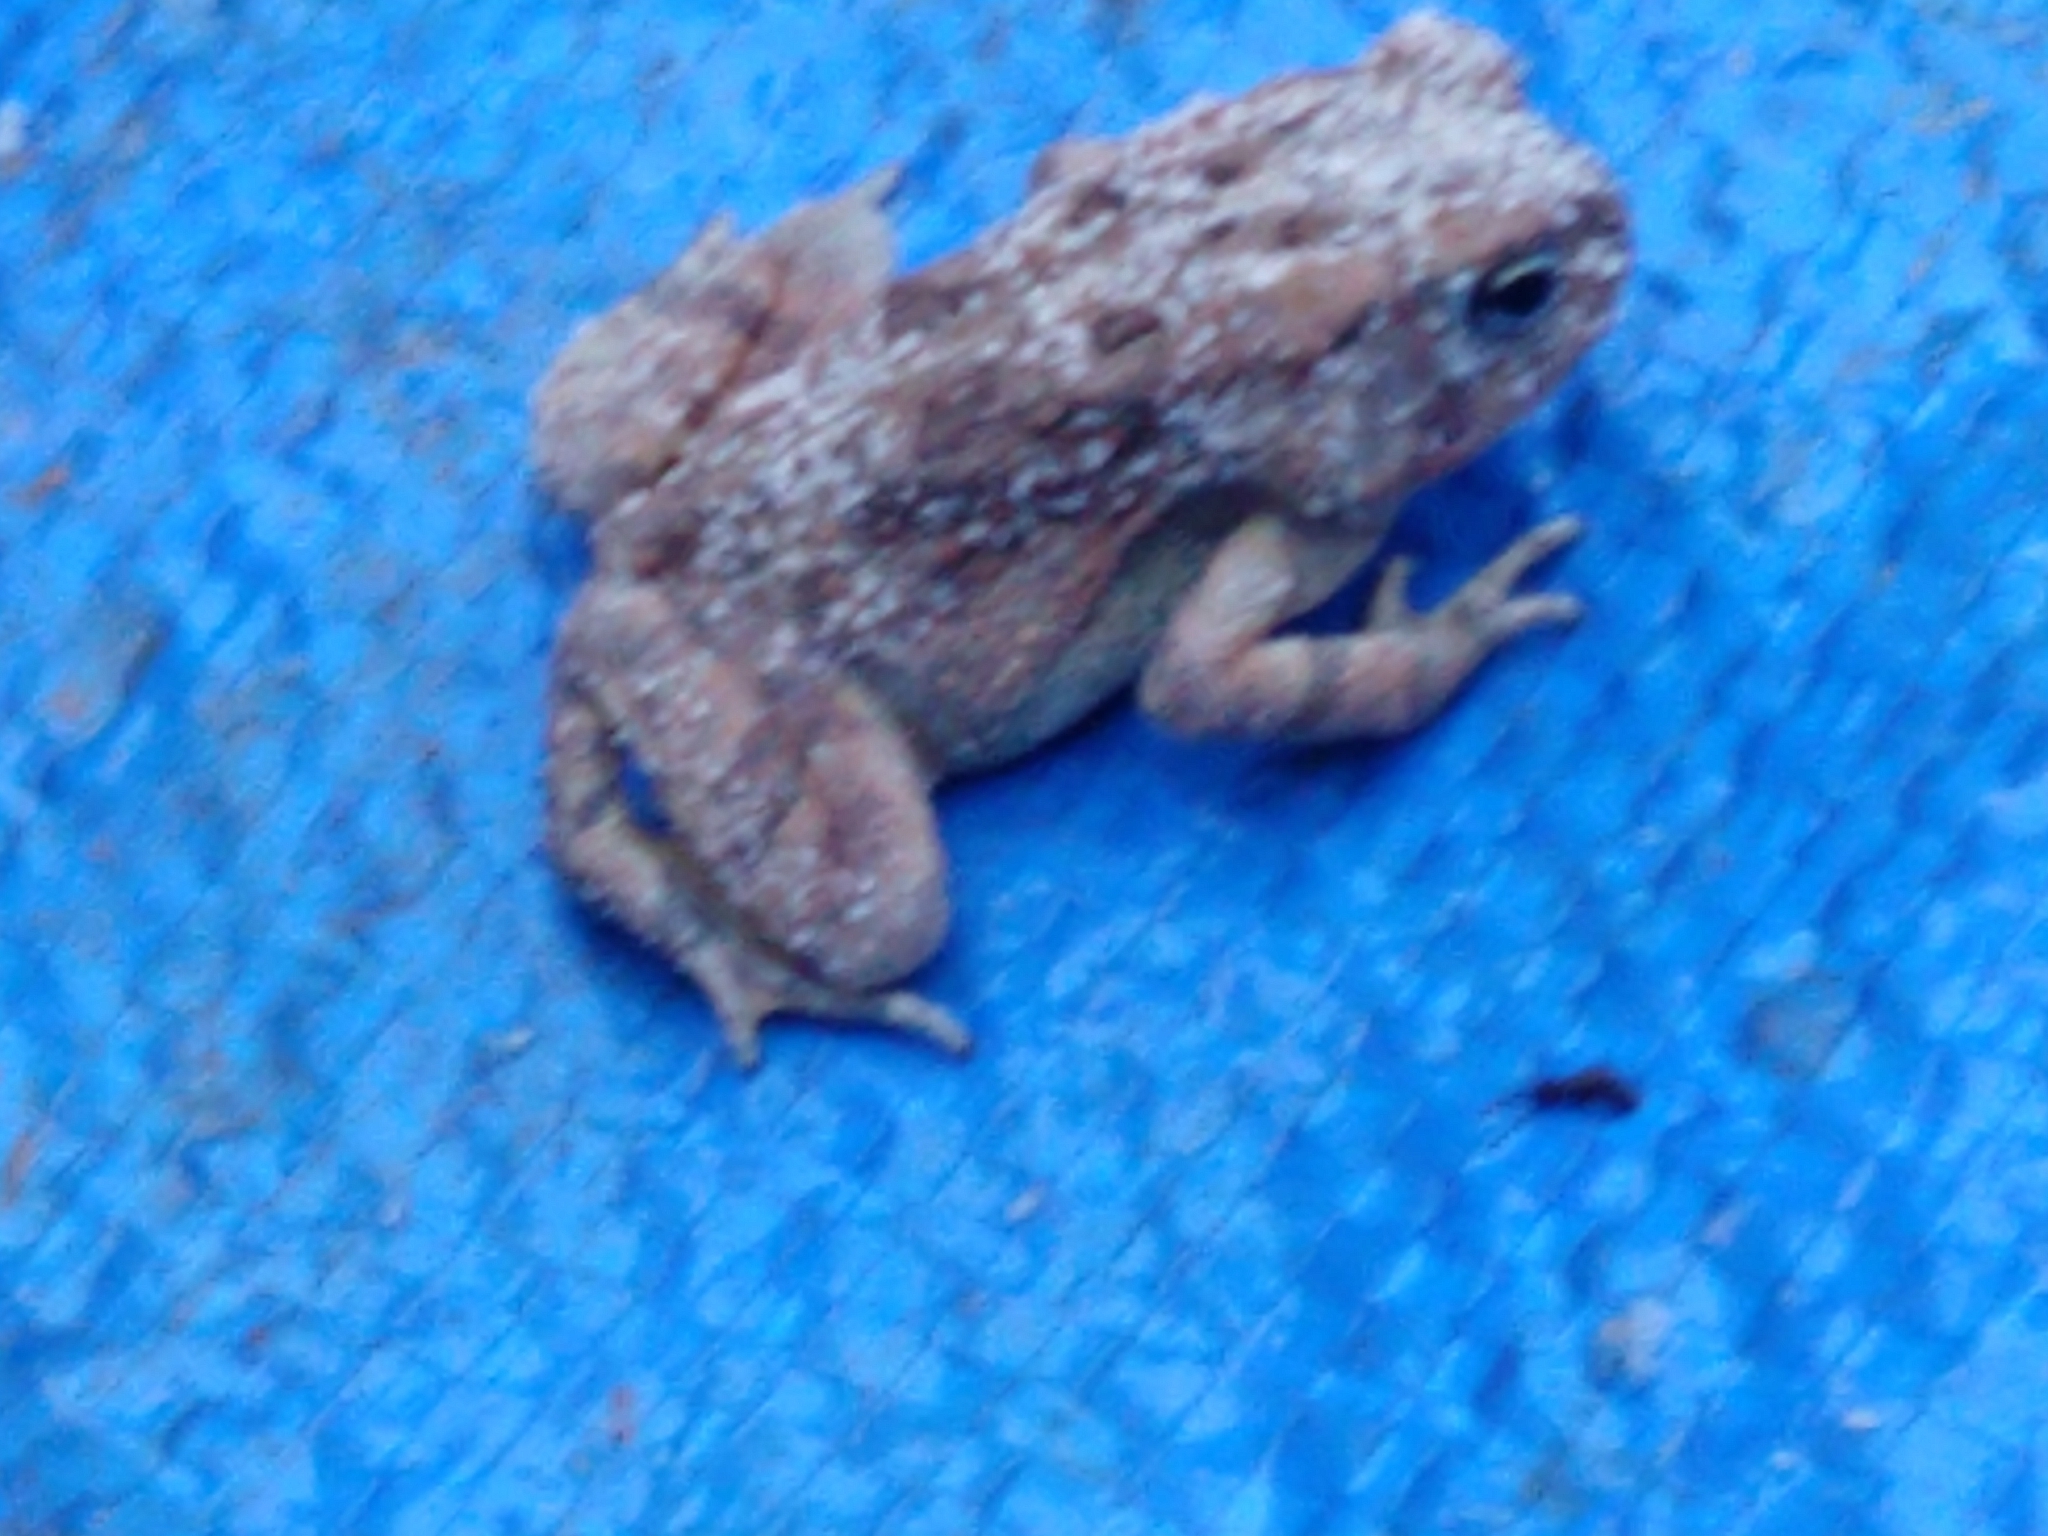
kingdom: Animalia
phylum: Chordata
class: Amphibia
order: Anura
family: Bufonidae
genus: Anaxyrus
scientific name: Anaxyrus fowleri
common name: Fowler's toad
